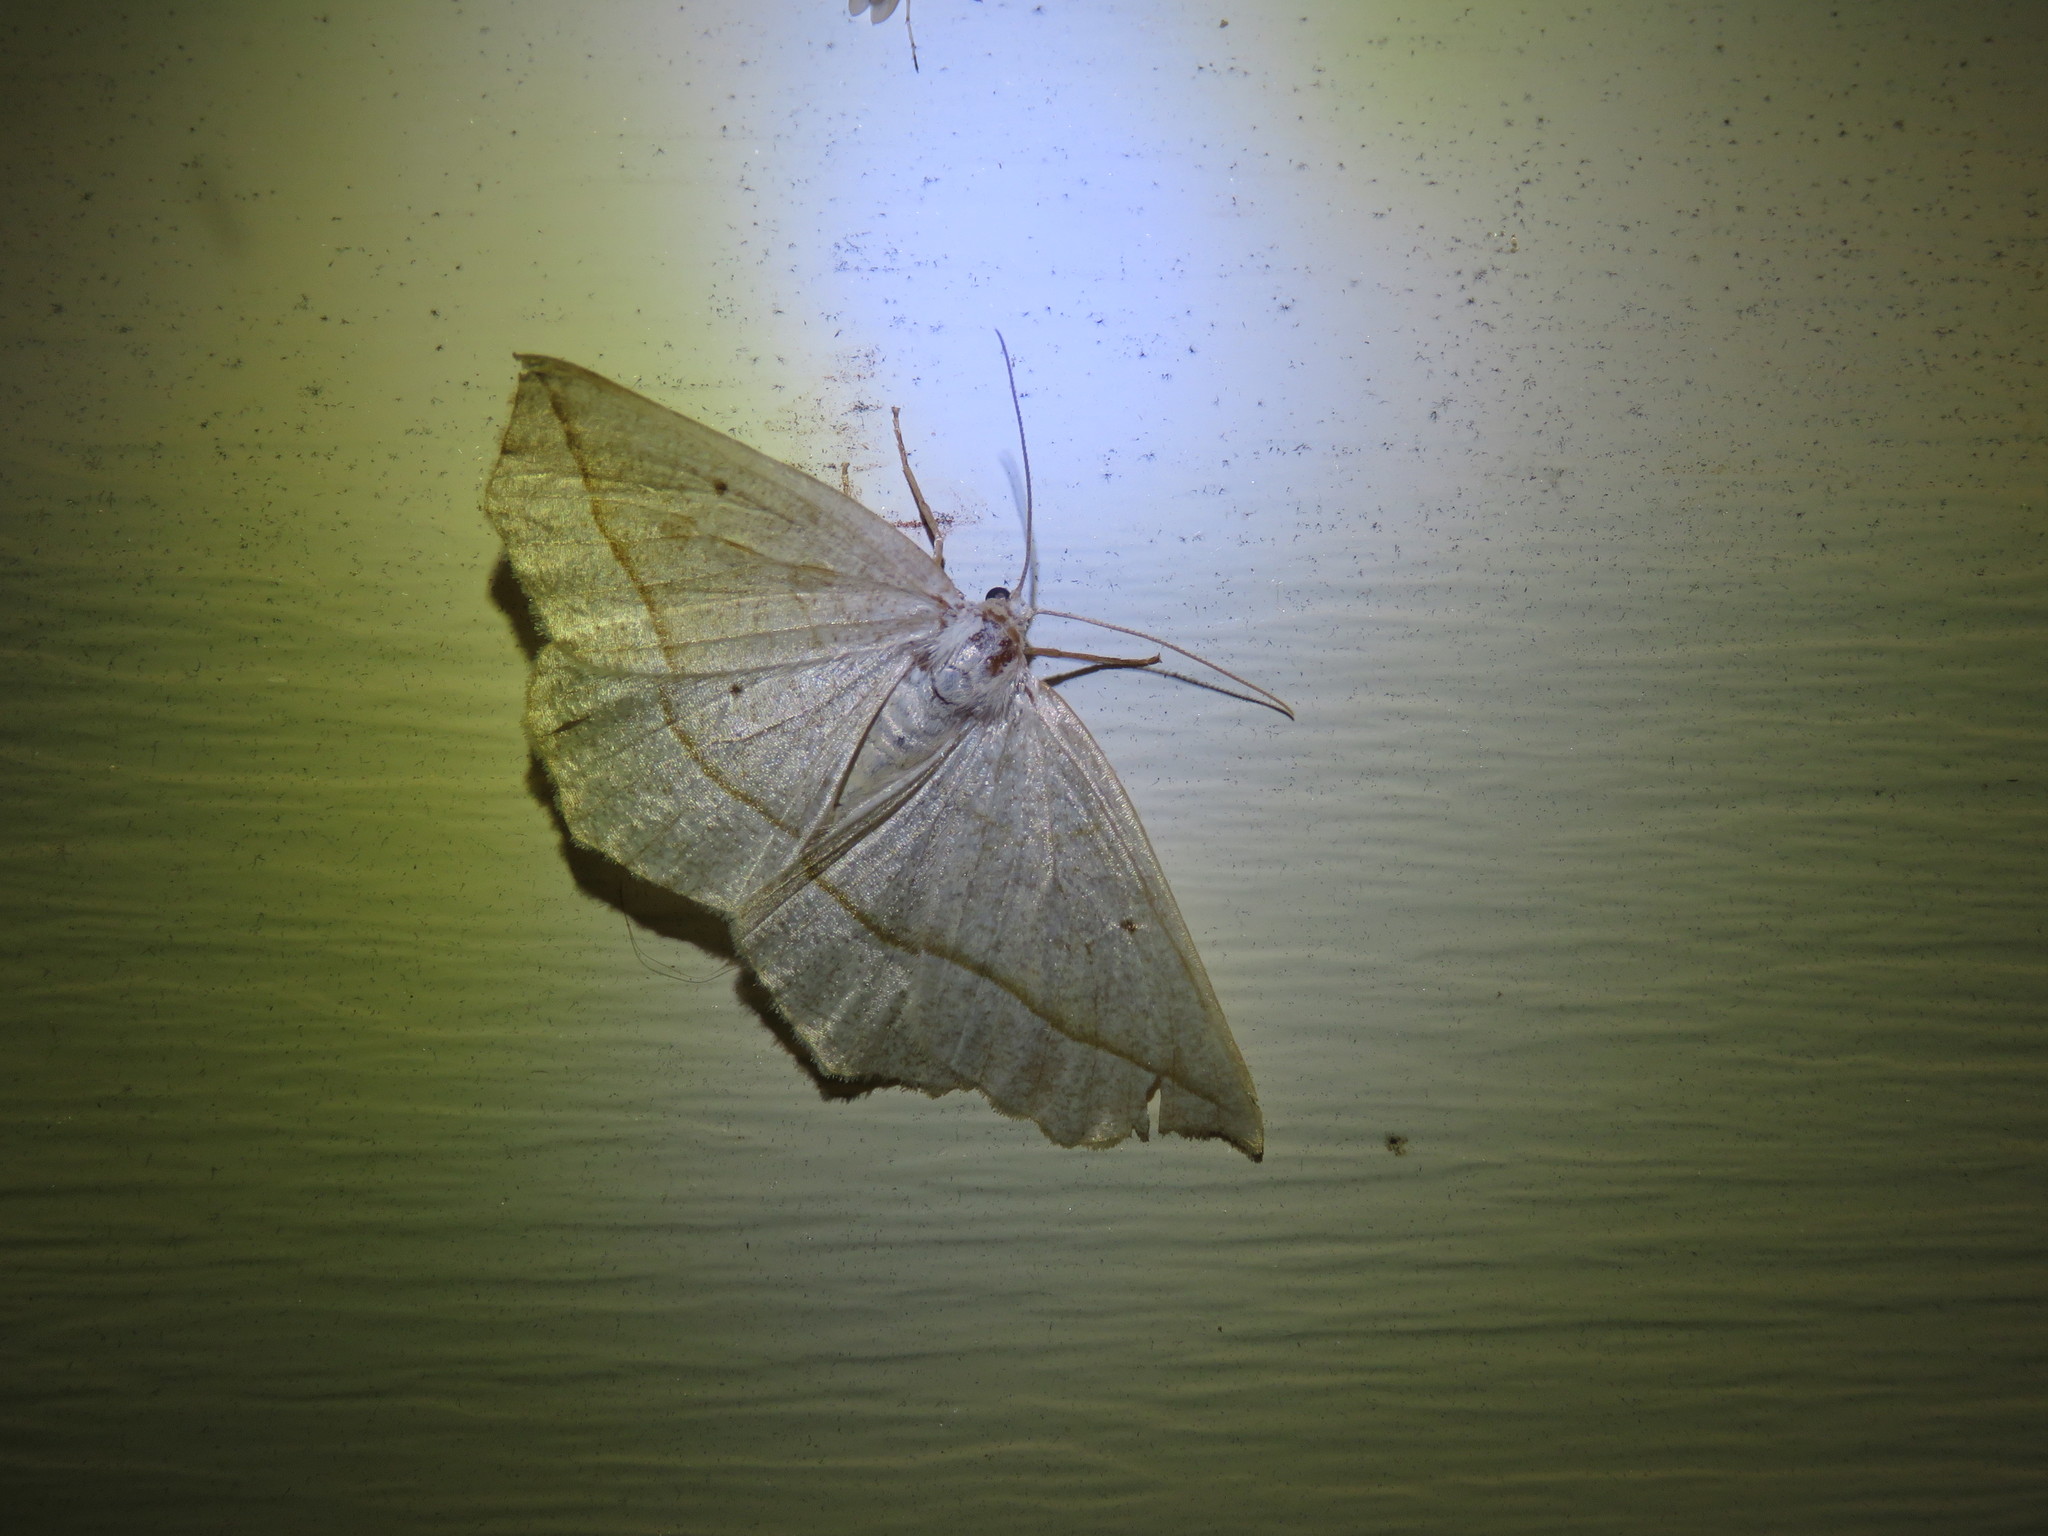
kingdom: Animalia
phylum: Arthropoda
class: Insecta
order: Lepidoptera
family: Geometridae
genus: Eusarca
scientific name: Eusarca confusaria
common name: Confused eusarca
